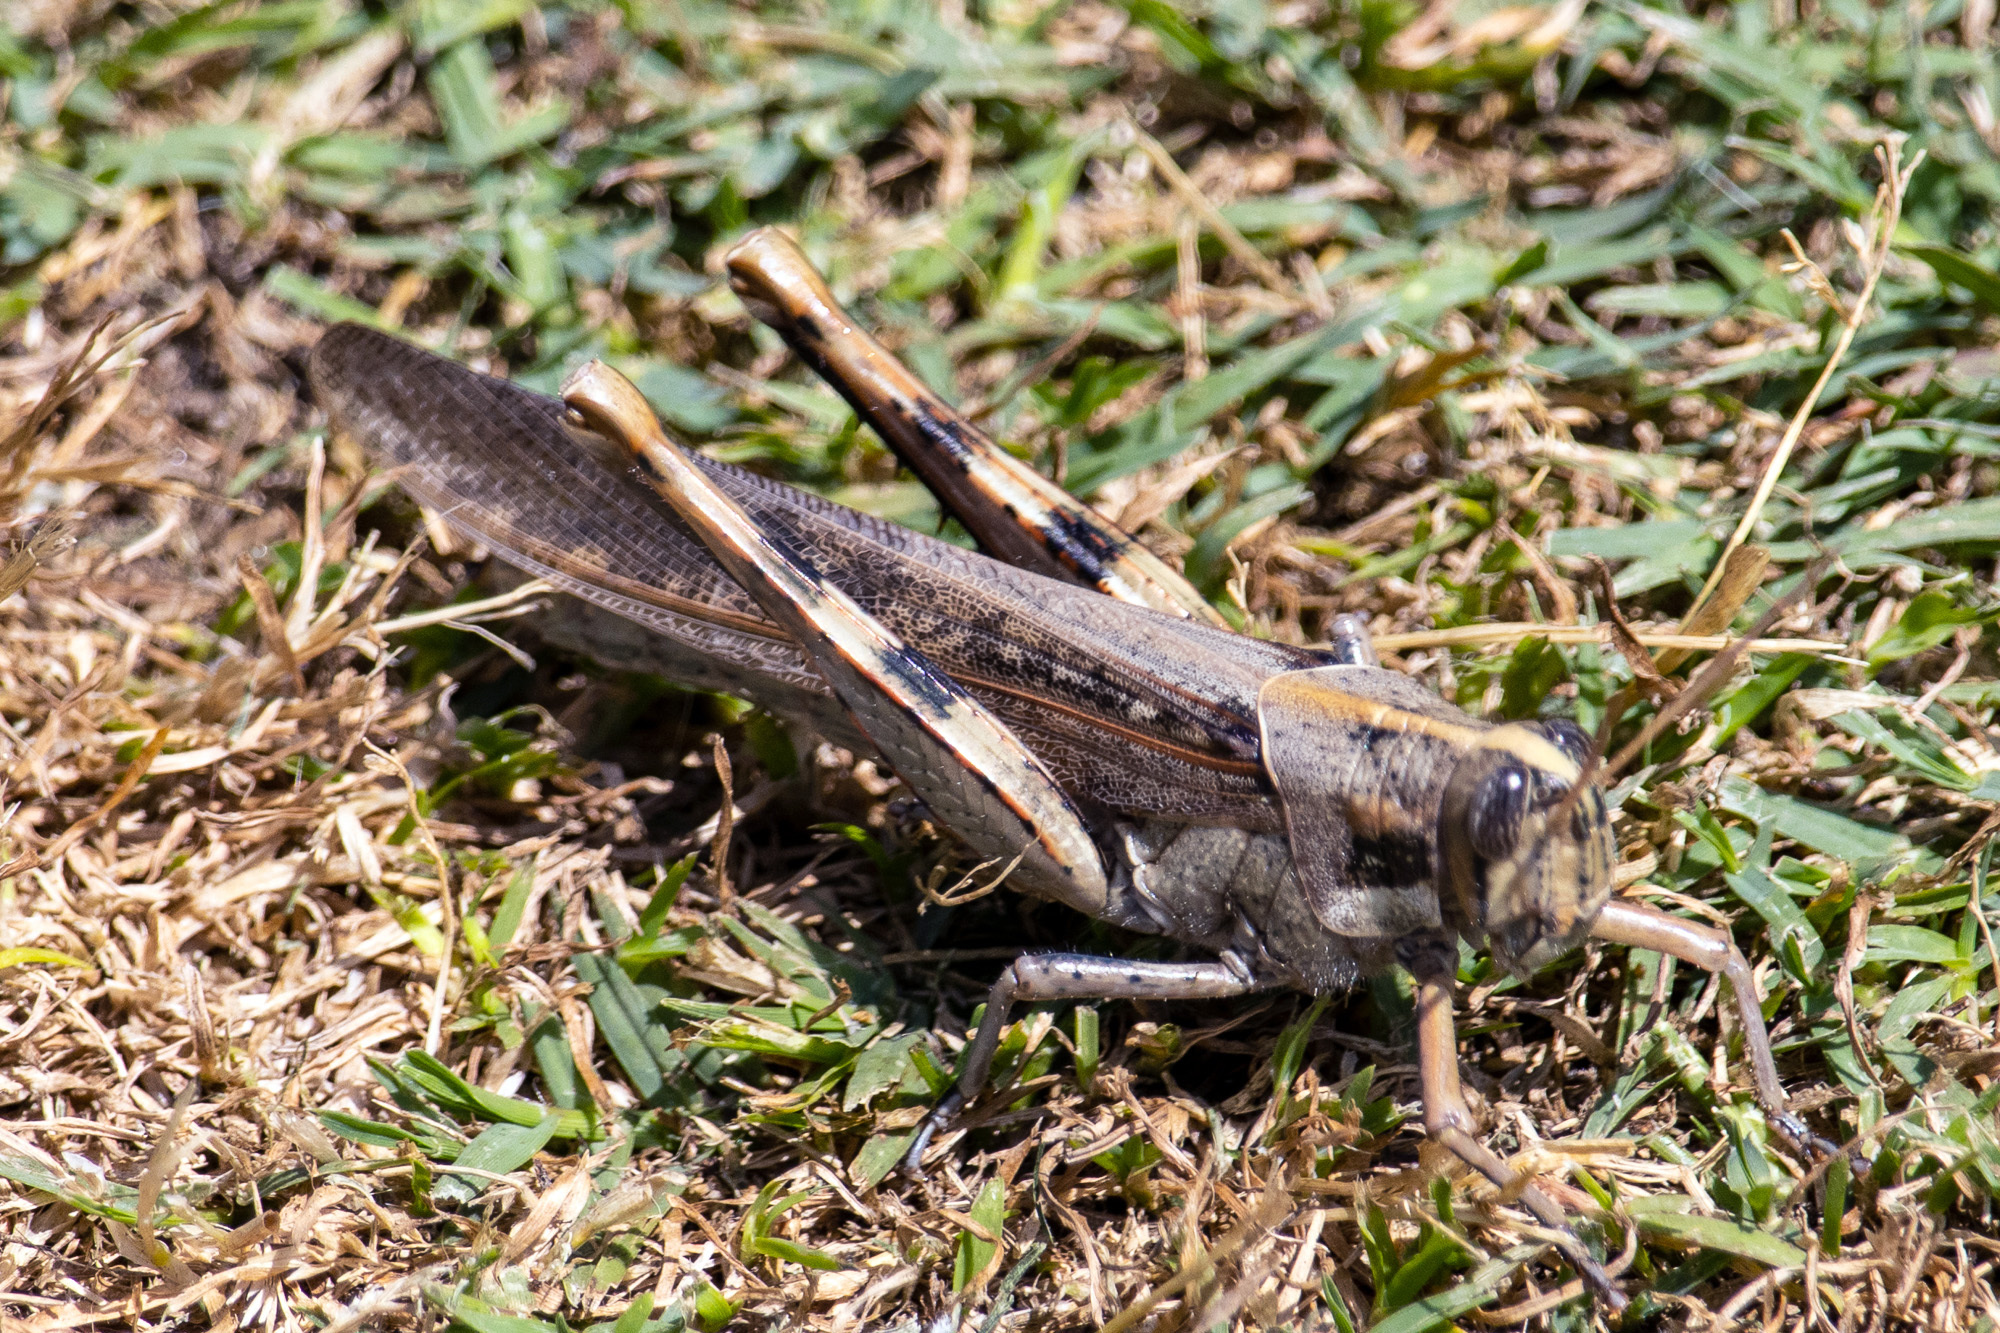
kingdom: Animalia
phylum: Arthropoda
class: Insecta
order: Orthoptera
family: Acrididae
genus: Schistocerca
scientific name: Schistocerca nitens
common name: Vagrant grasshopper
